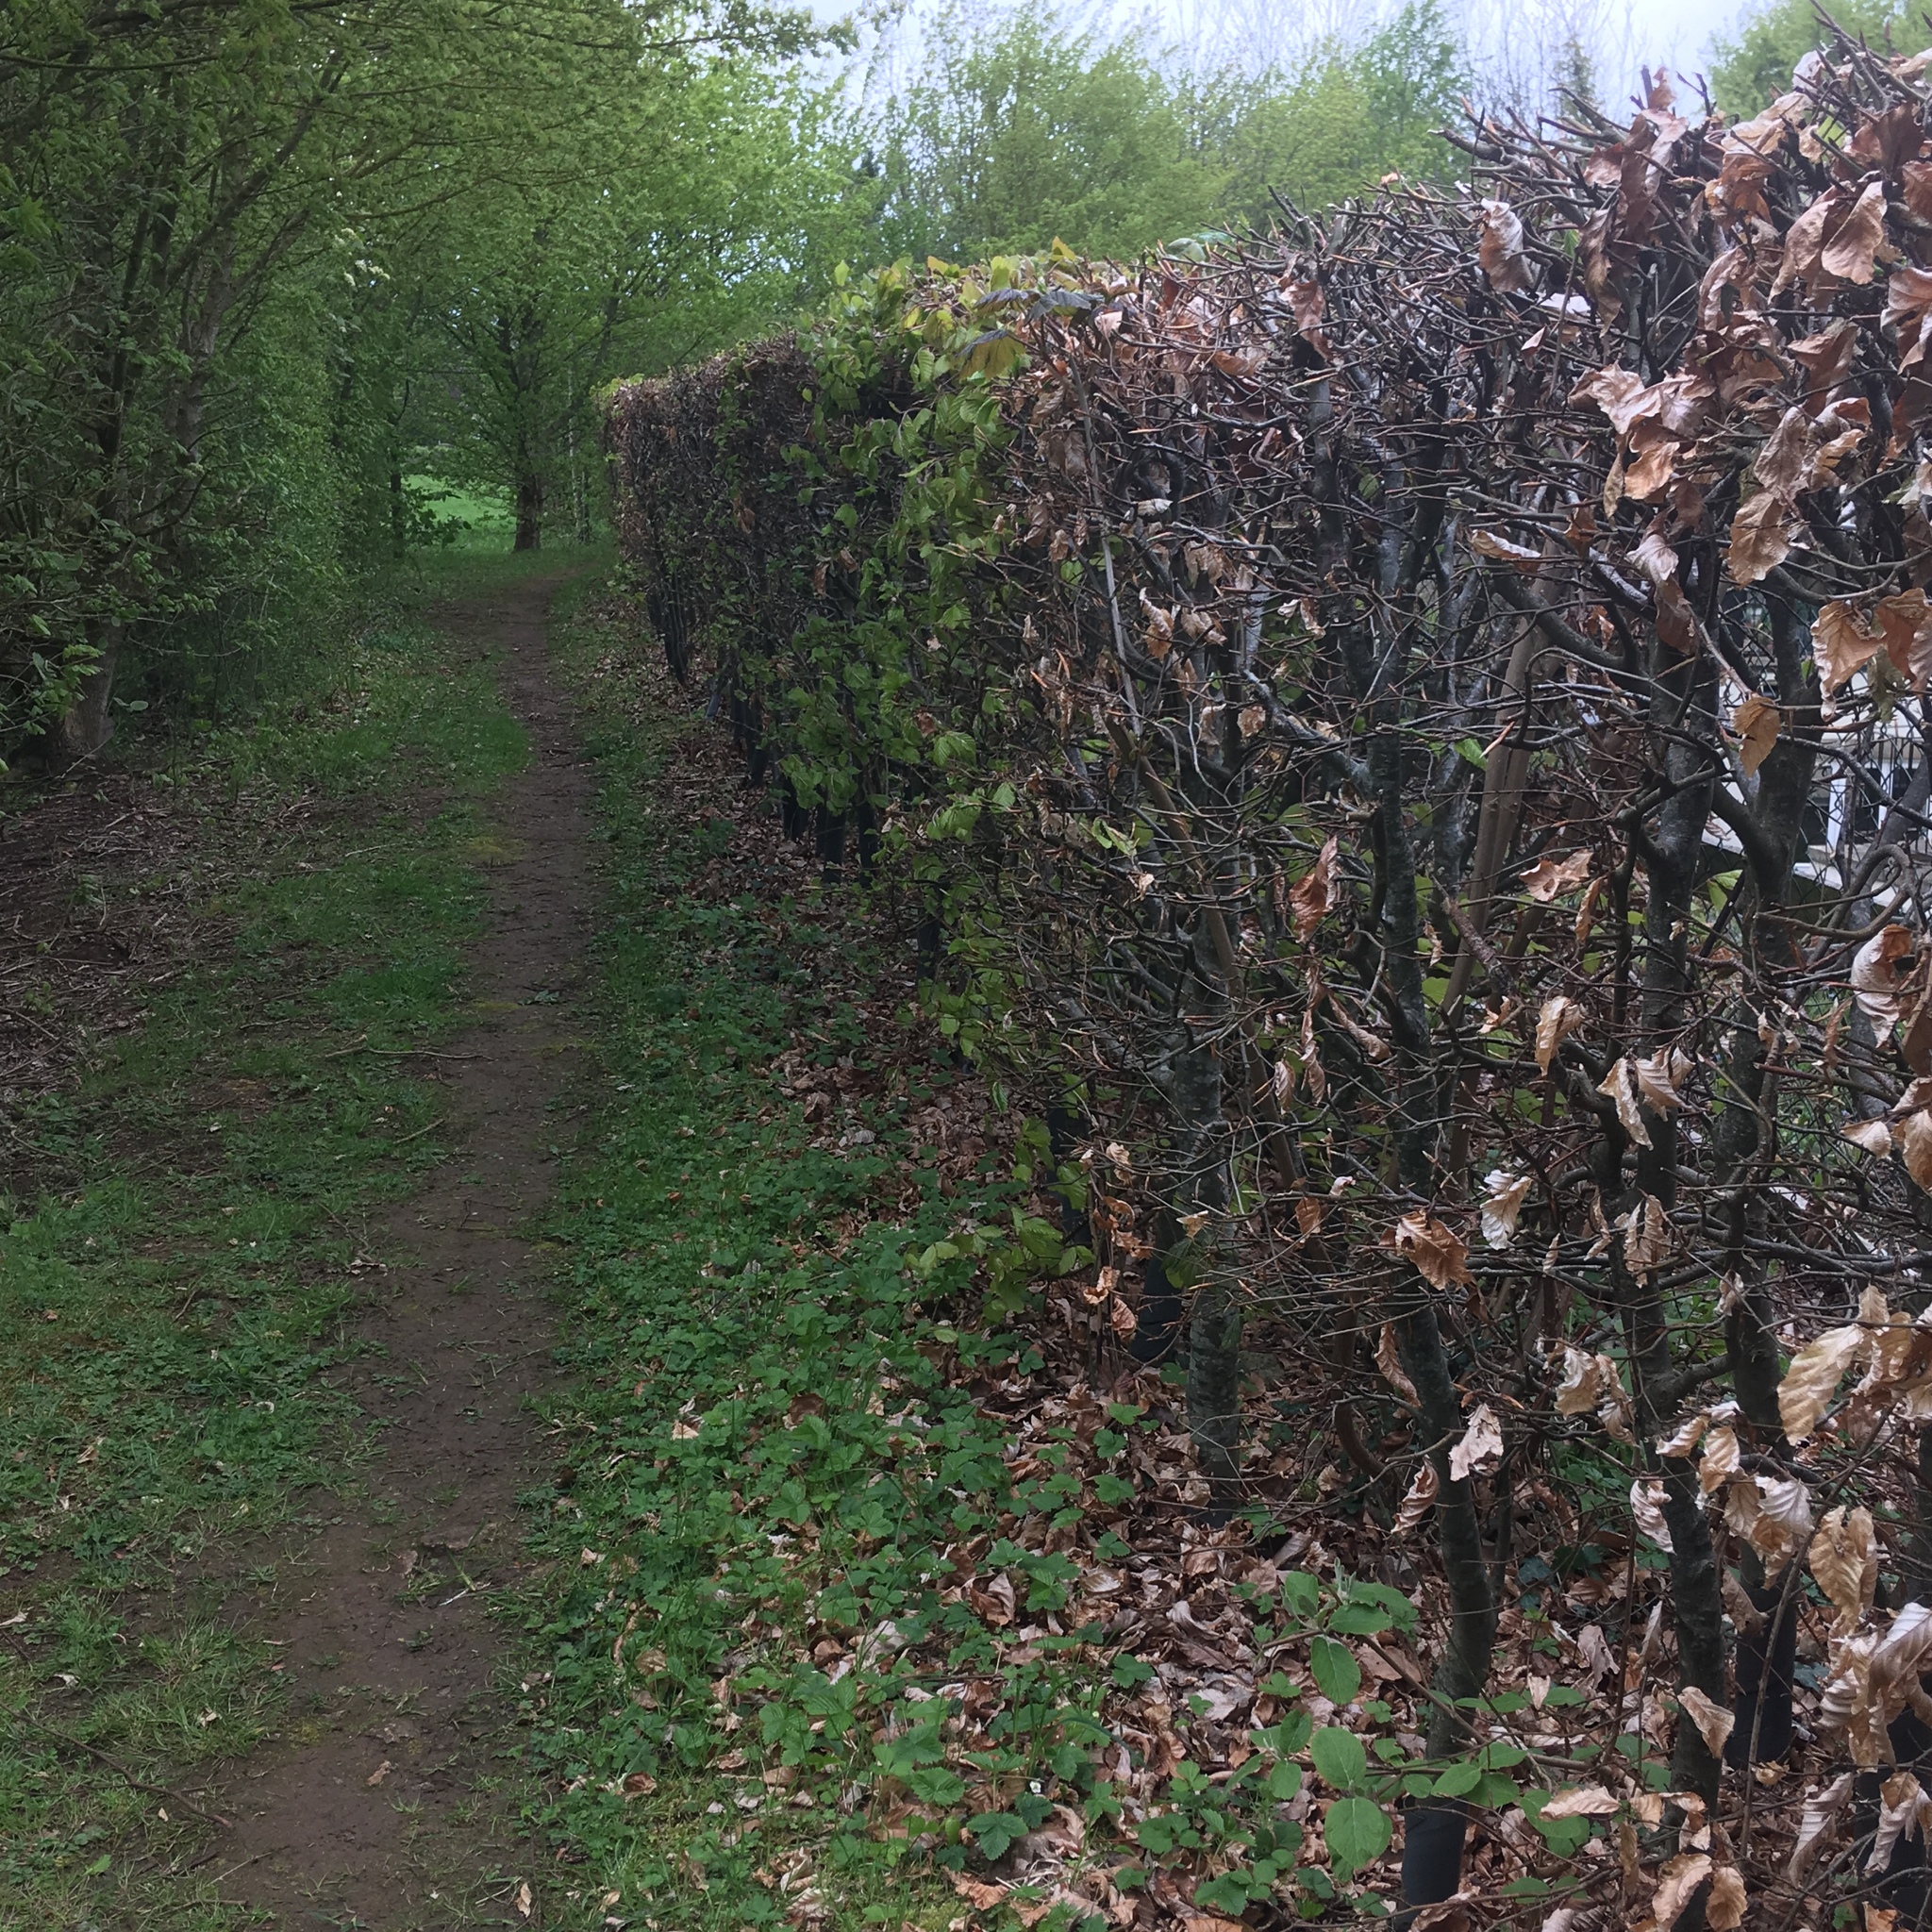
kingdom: Plantae
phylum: Tracheophyta
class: Magnoliopsida
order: Fagales
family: Fagaceae
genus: Fagus
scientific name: Fagus sylvatica
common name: Beech
